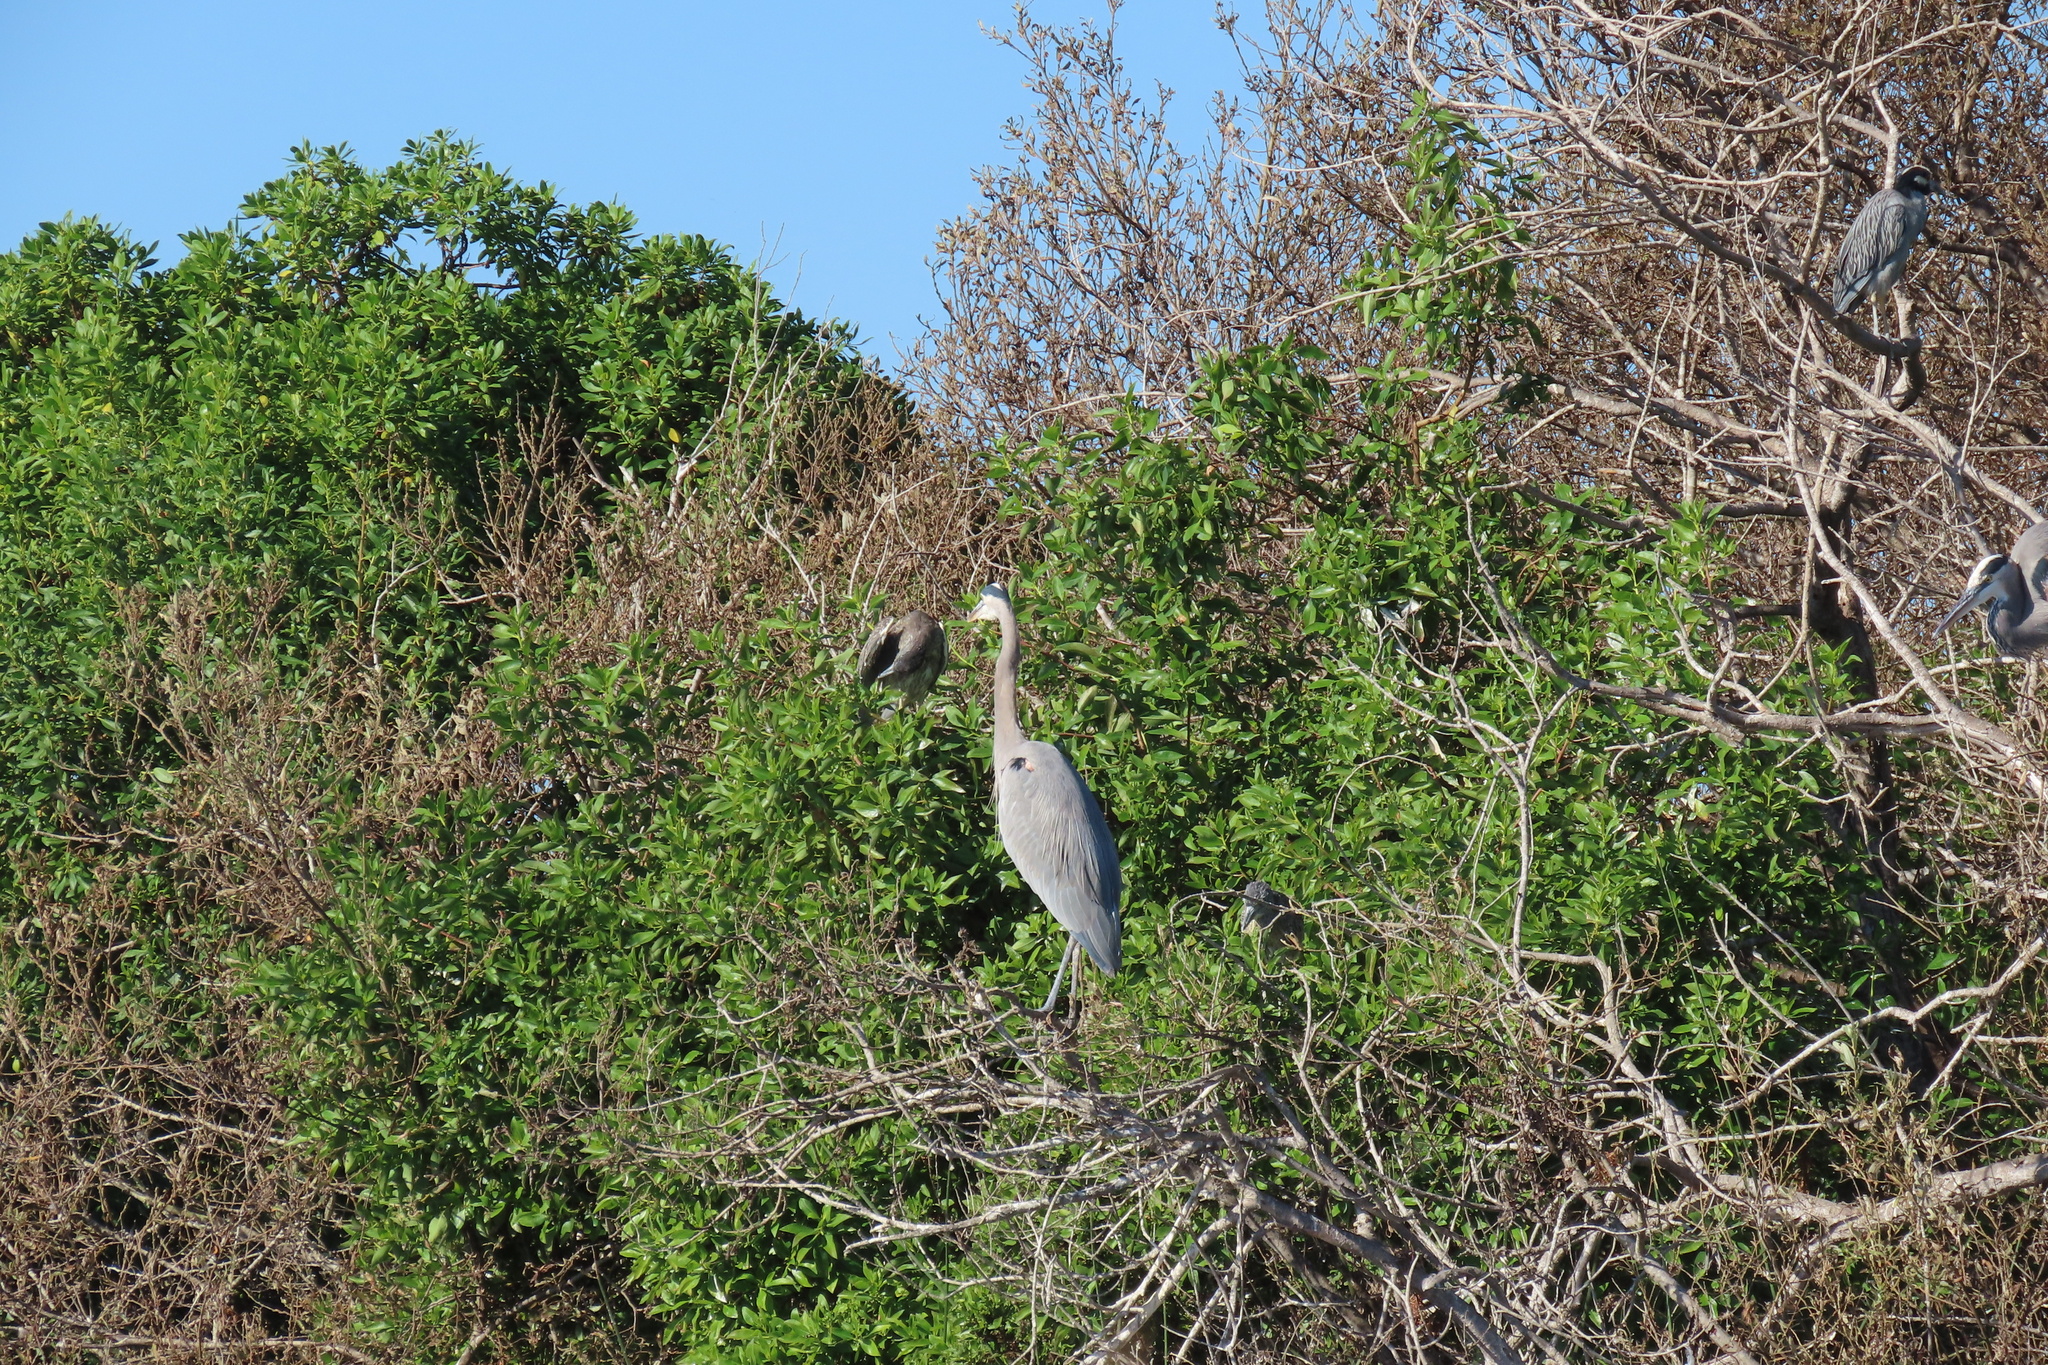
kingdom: Animalia
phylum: Chordata
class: Aves
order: Pelecaniformes
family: Ardeidae
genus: Ardea
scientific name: Ardea herodias
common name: Great blue heron
